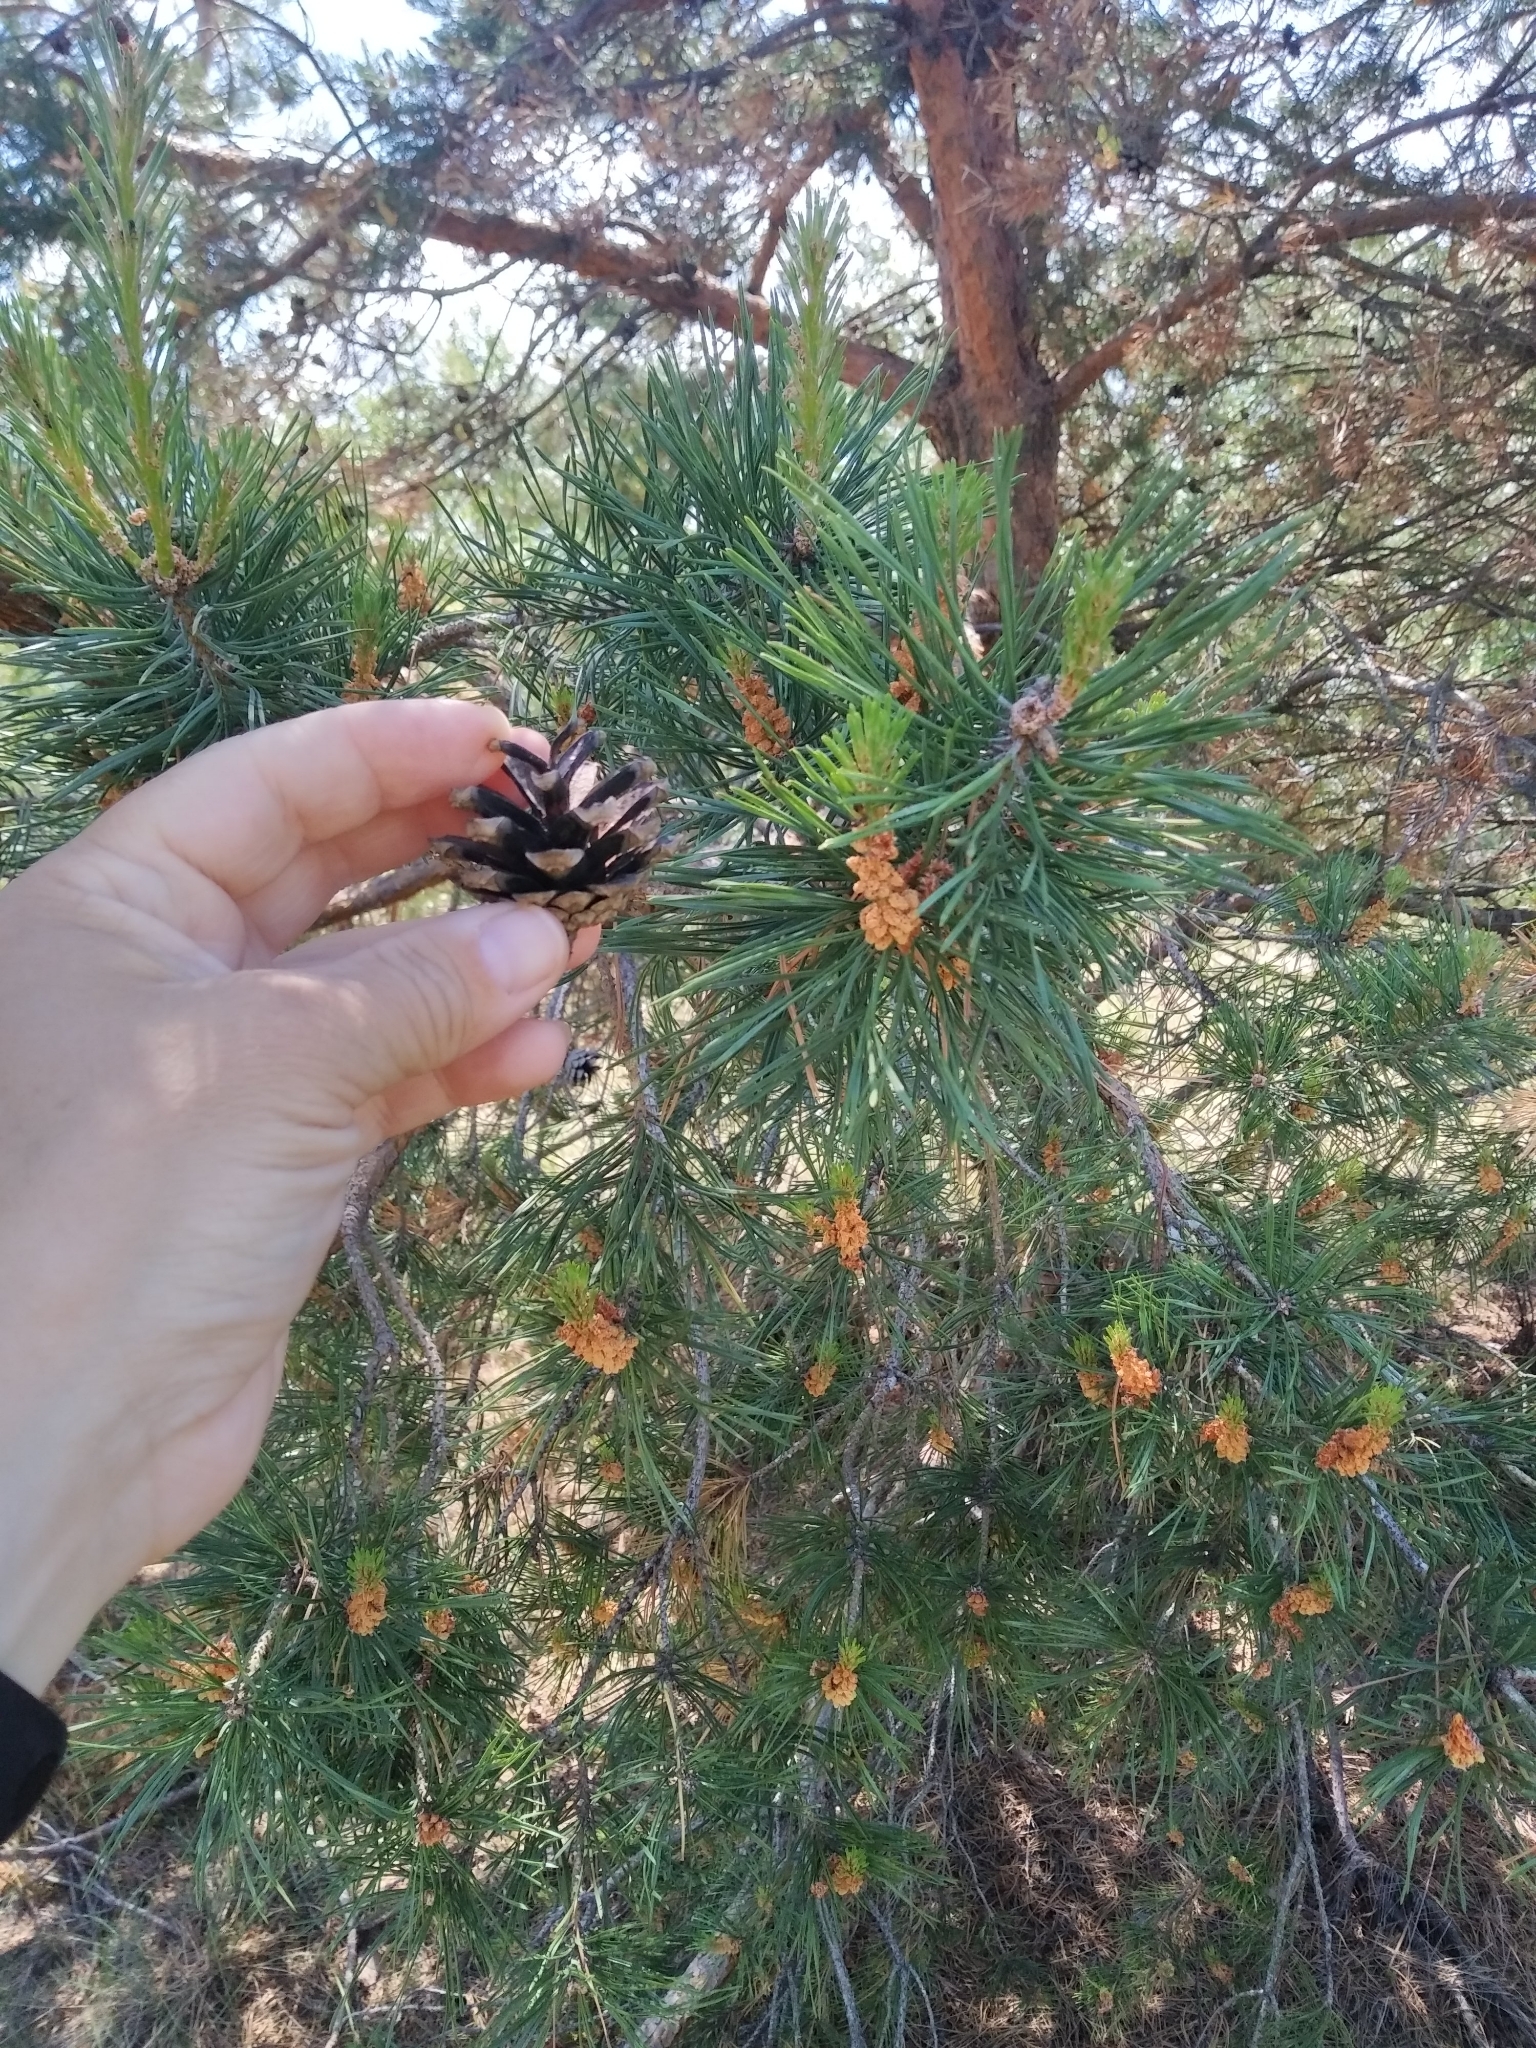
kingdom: Plantae
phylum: Tracheophyta
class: Pinopsida
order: Pinales
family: Pinaceae
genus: Pinus
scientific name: Pinus sylvestris
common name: Scots pine
